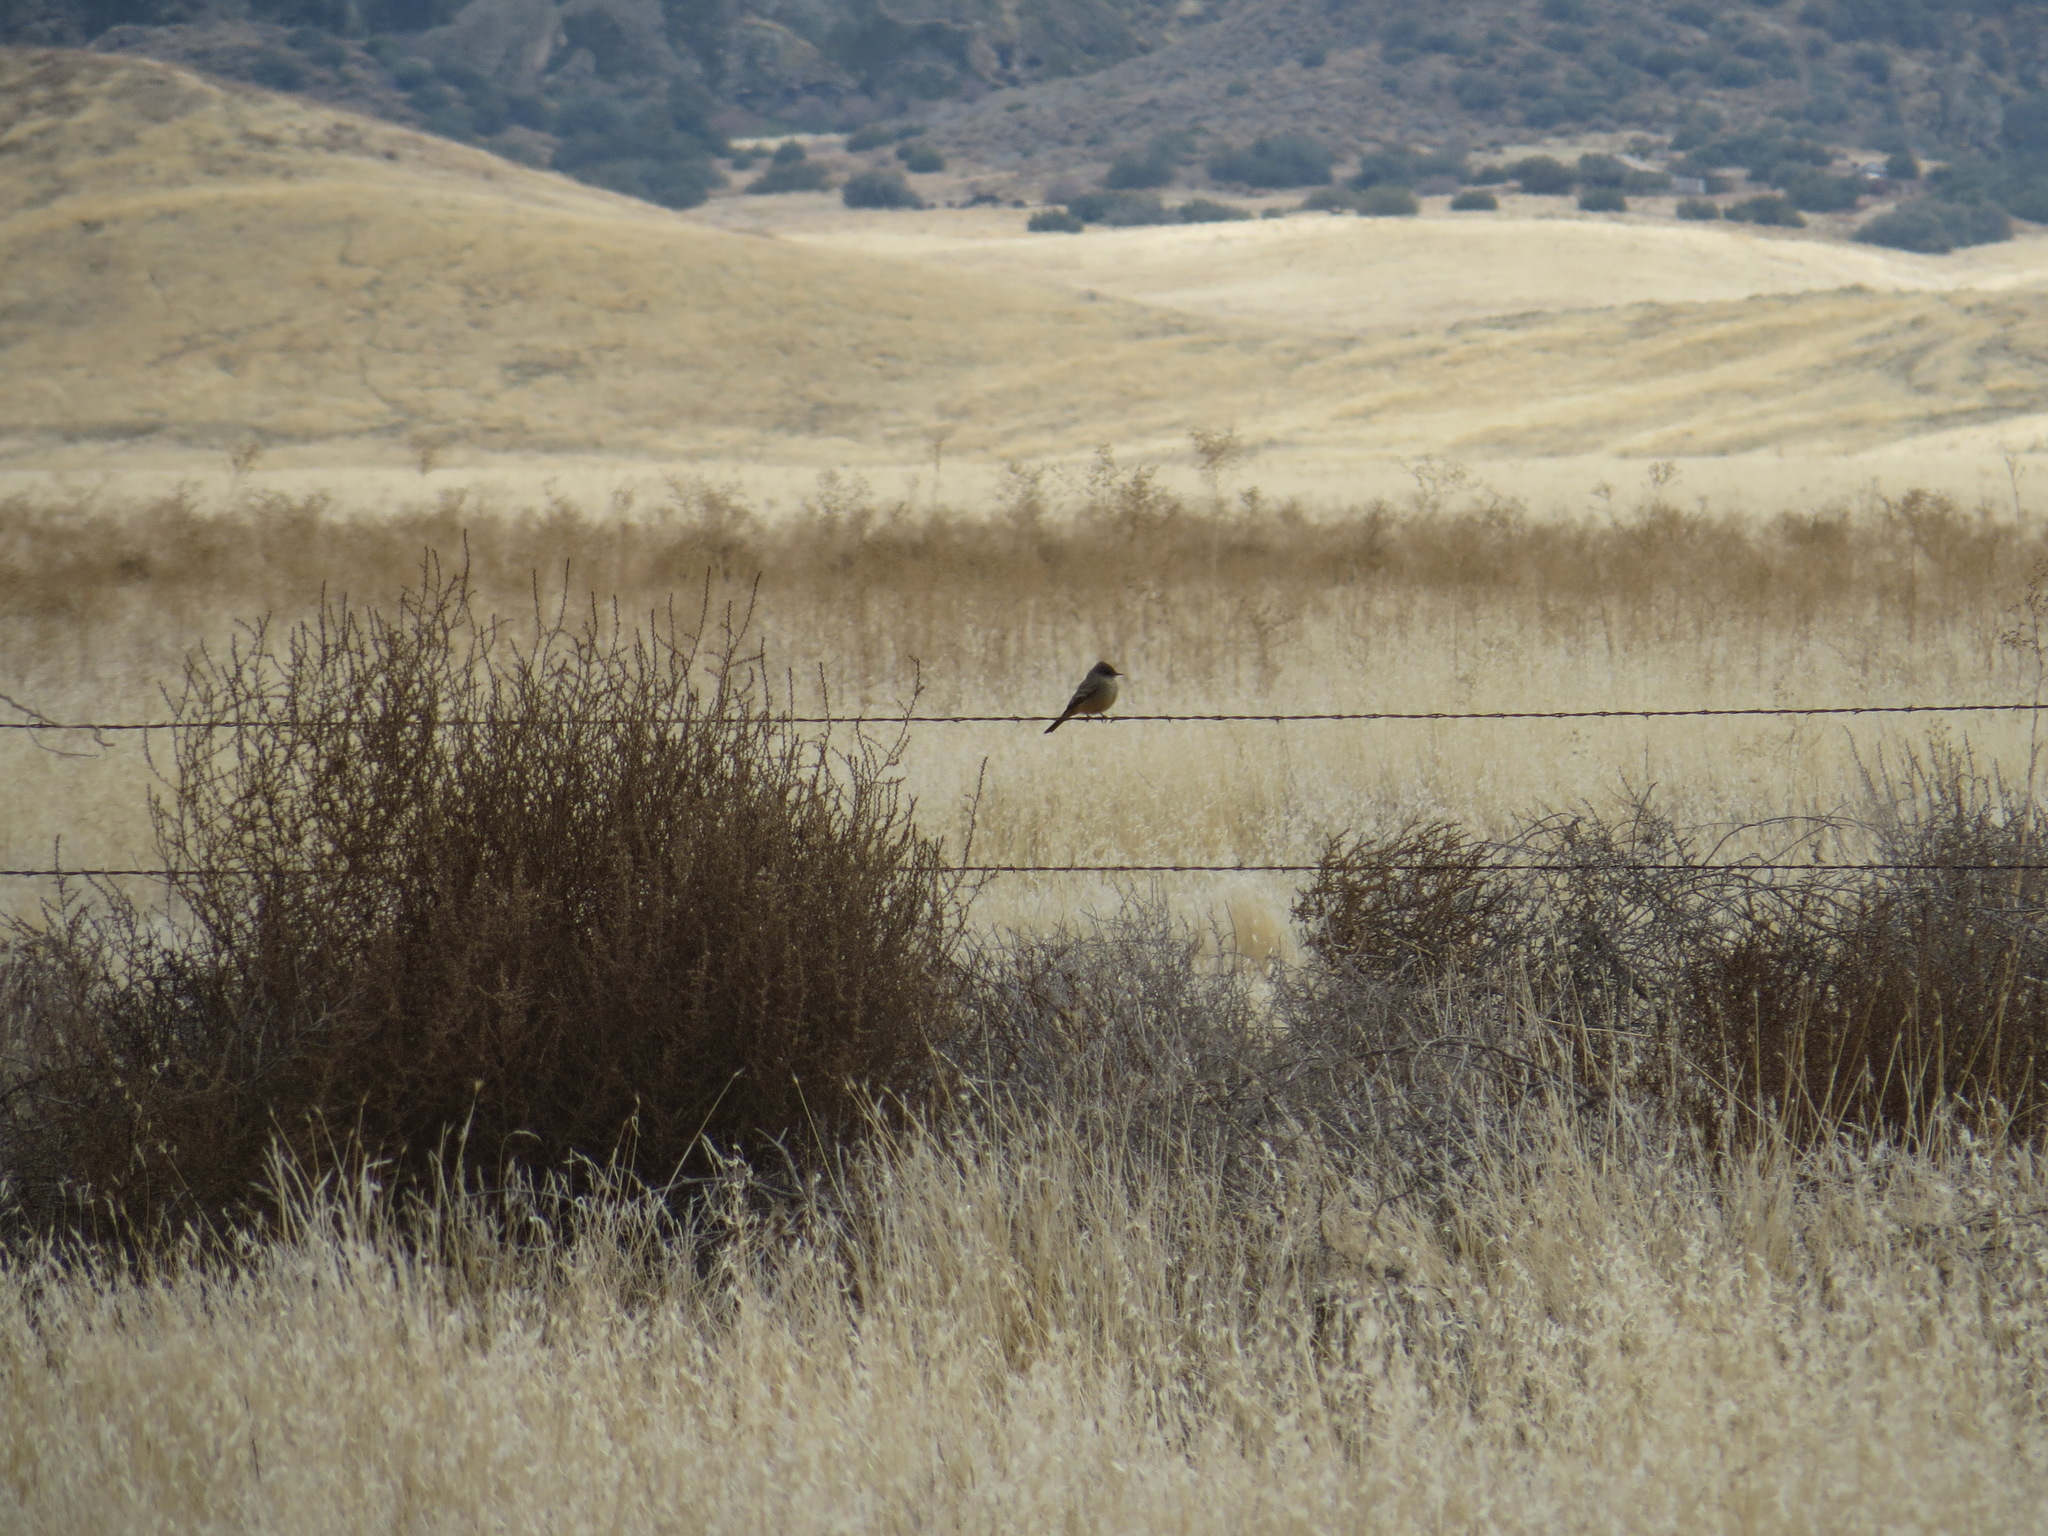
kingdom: Animalia
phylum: Chordata
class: Aves
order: Passeriformes
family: Tyrannidae
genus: Sayornis
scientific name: Sayornis saya
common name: Say's phoebe
